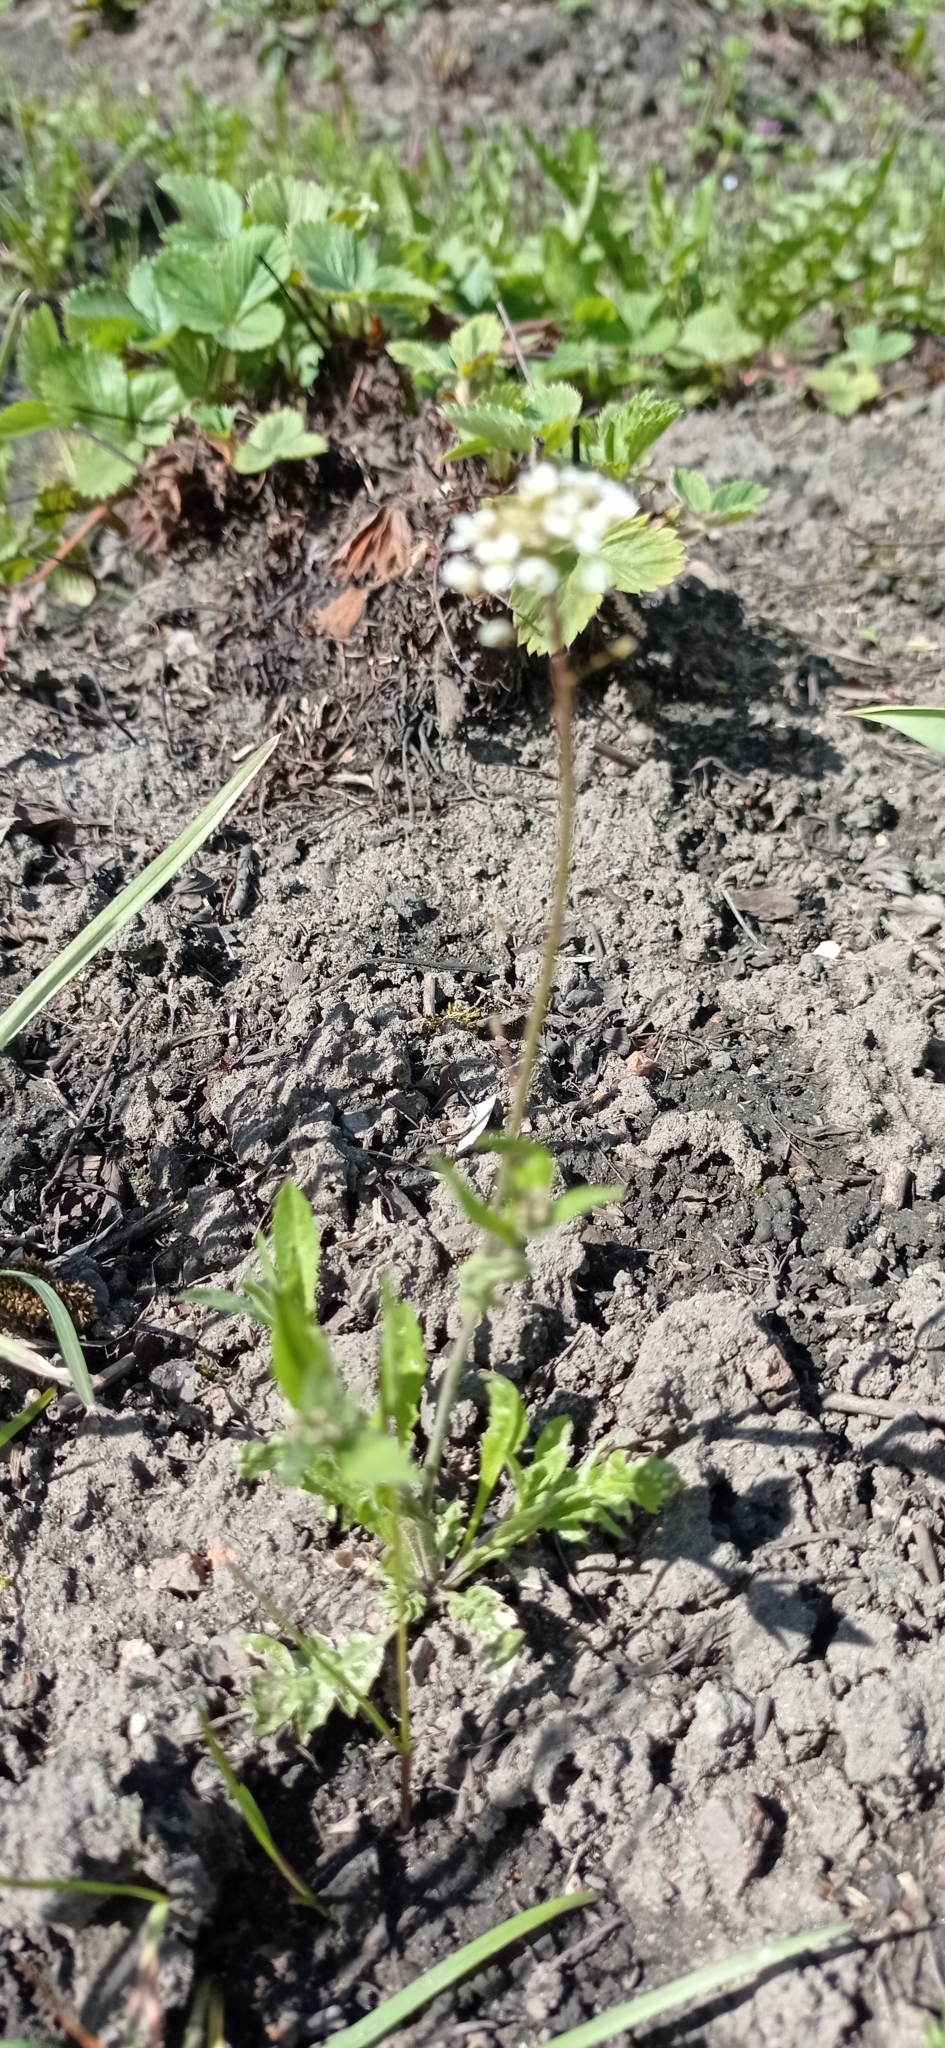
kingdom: Plantae
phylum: Tracheophyta
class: Magnoliopsida
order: Lamiales
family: Plantaginaceae
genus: Veronica
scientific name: Veronica persica
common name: Common field-speedwell
